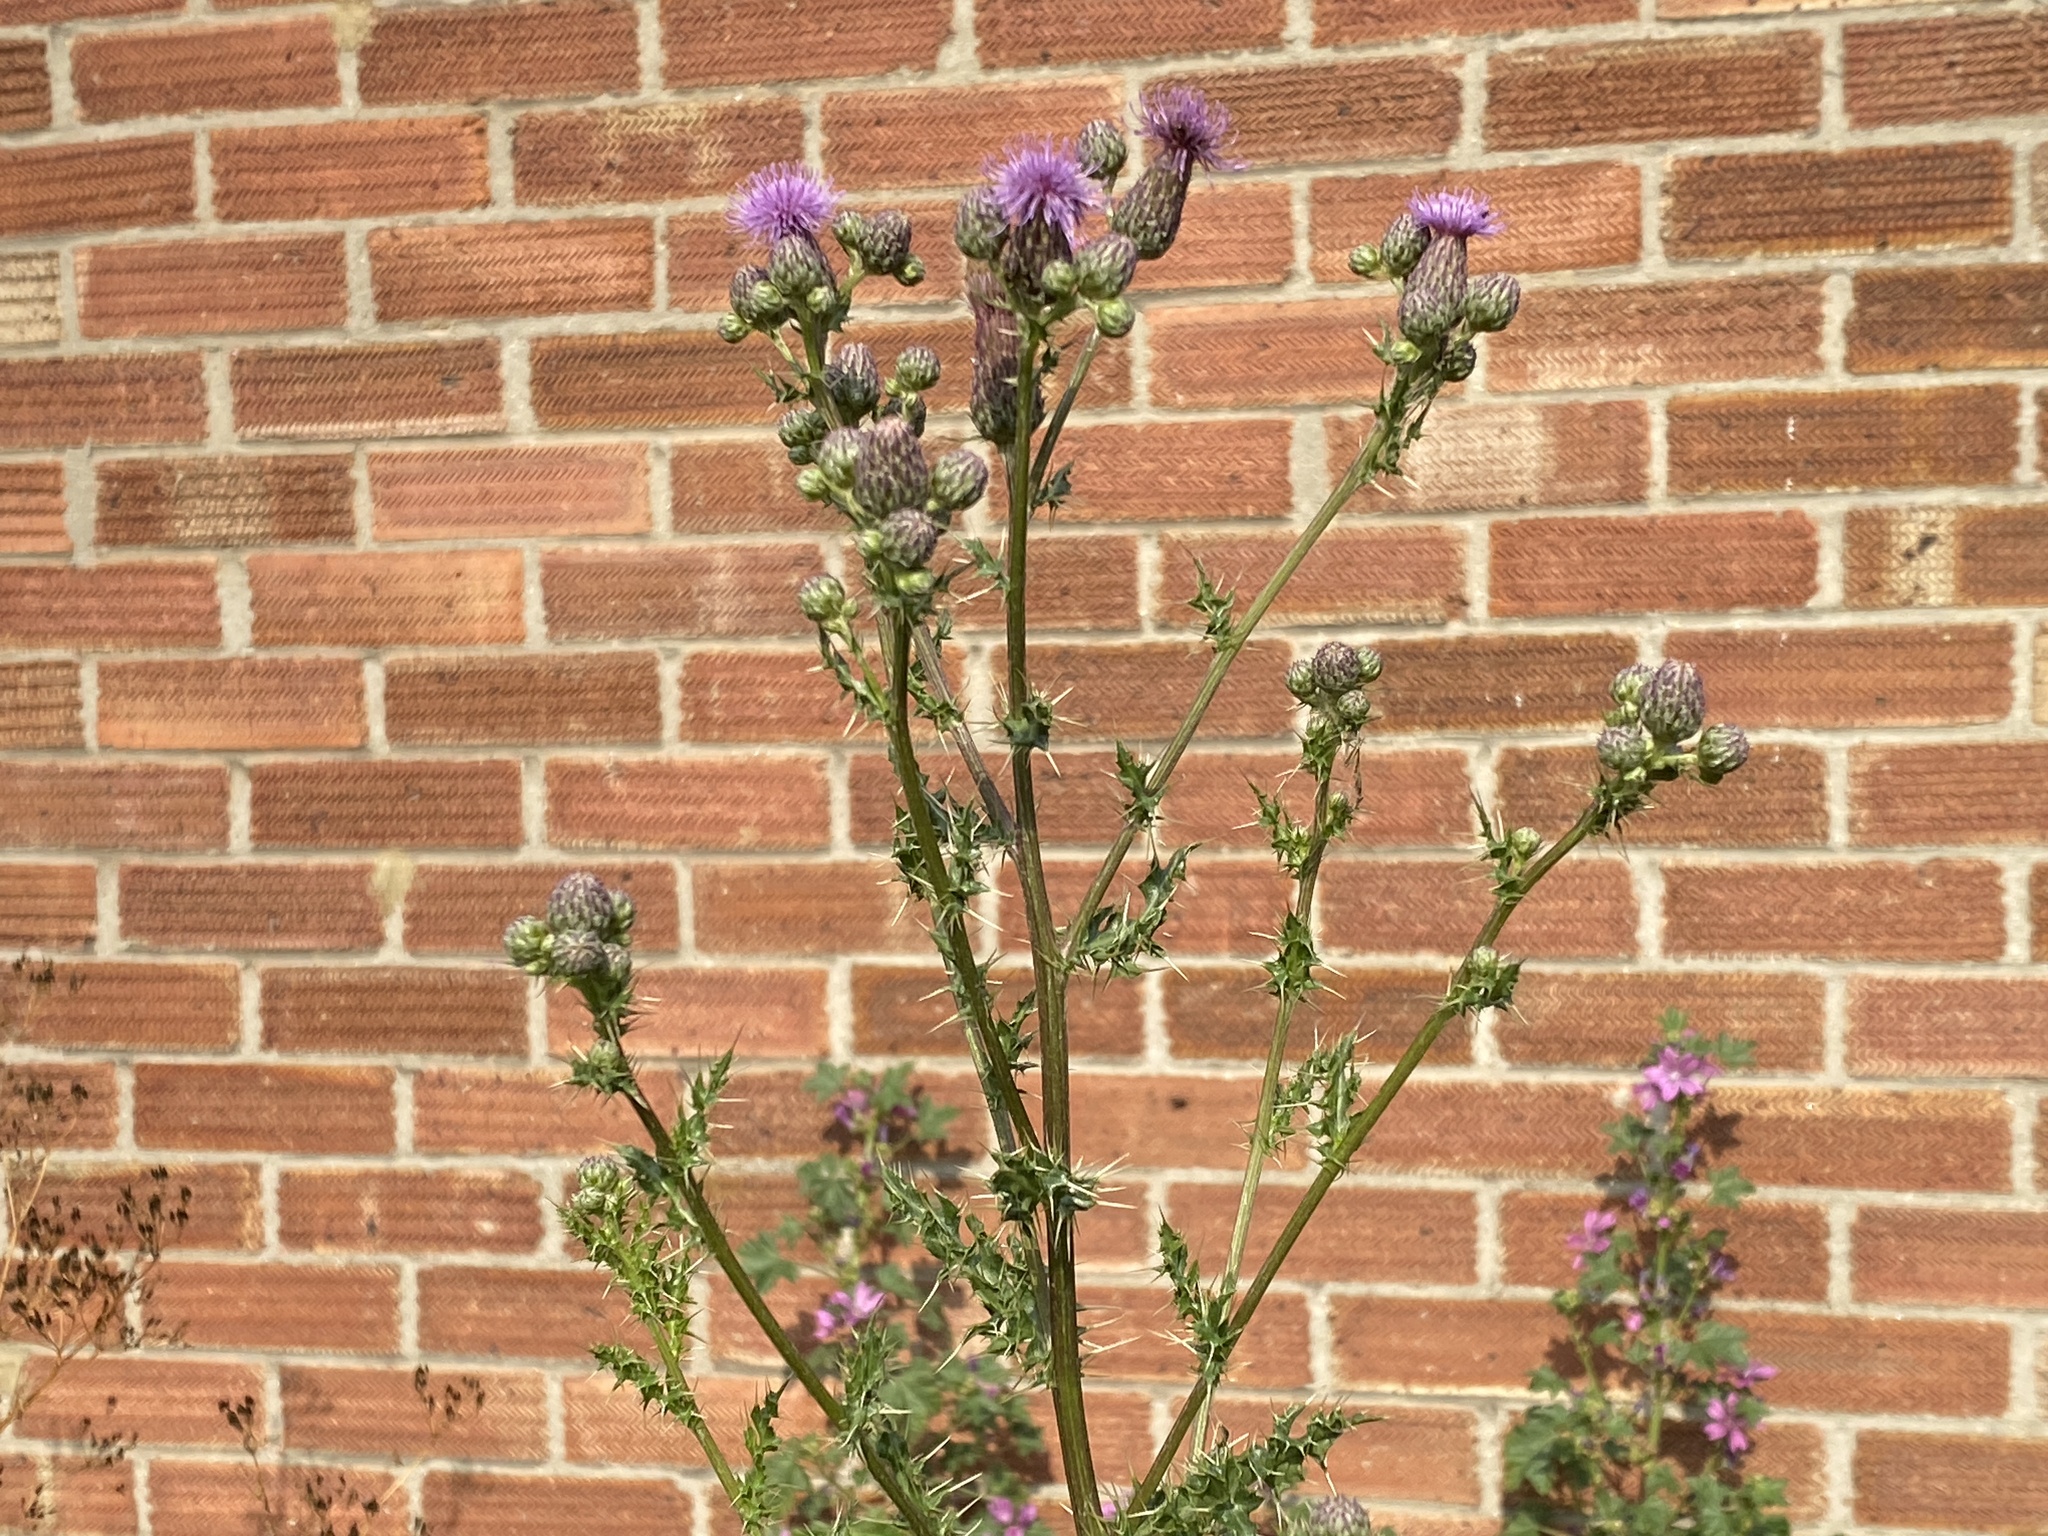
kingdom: Plantae
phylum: Tracheophyta
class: Magnoliopsida
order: Asterales
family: Asteraceae
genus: Cirsium
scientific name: Cirsium arvense
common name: Creeping thistle
